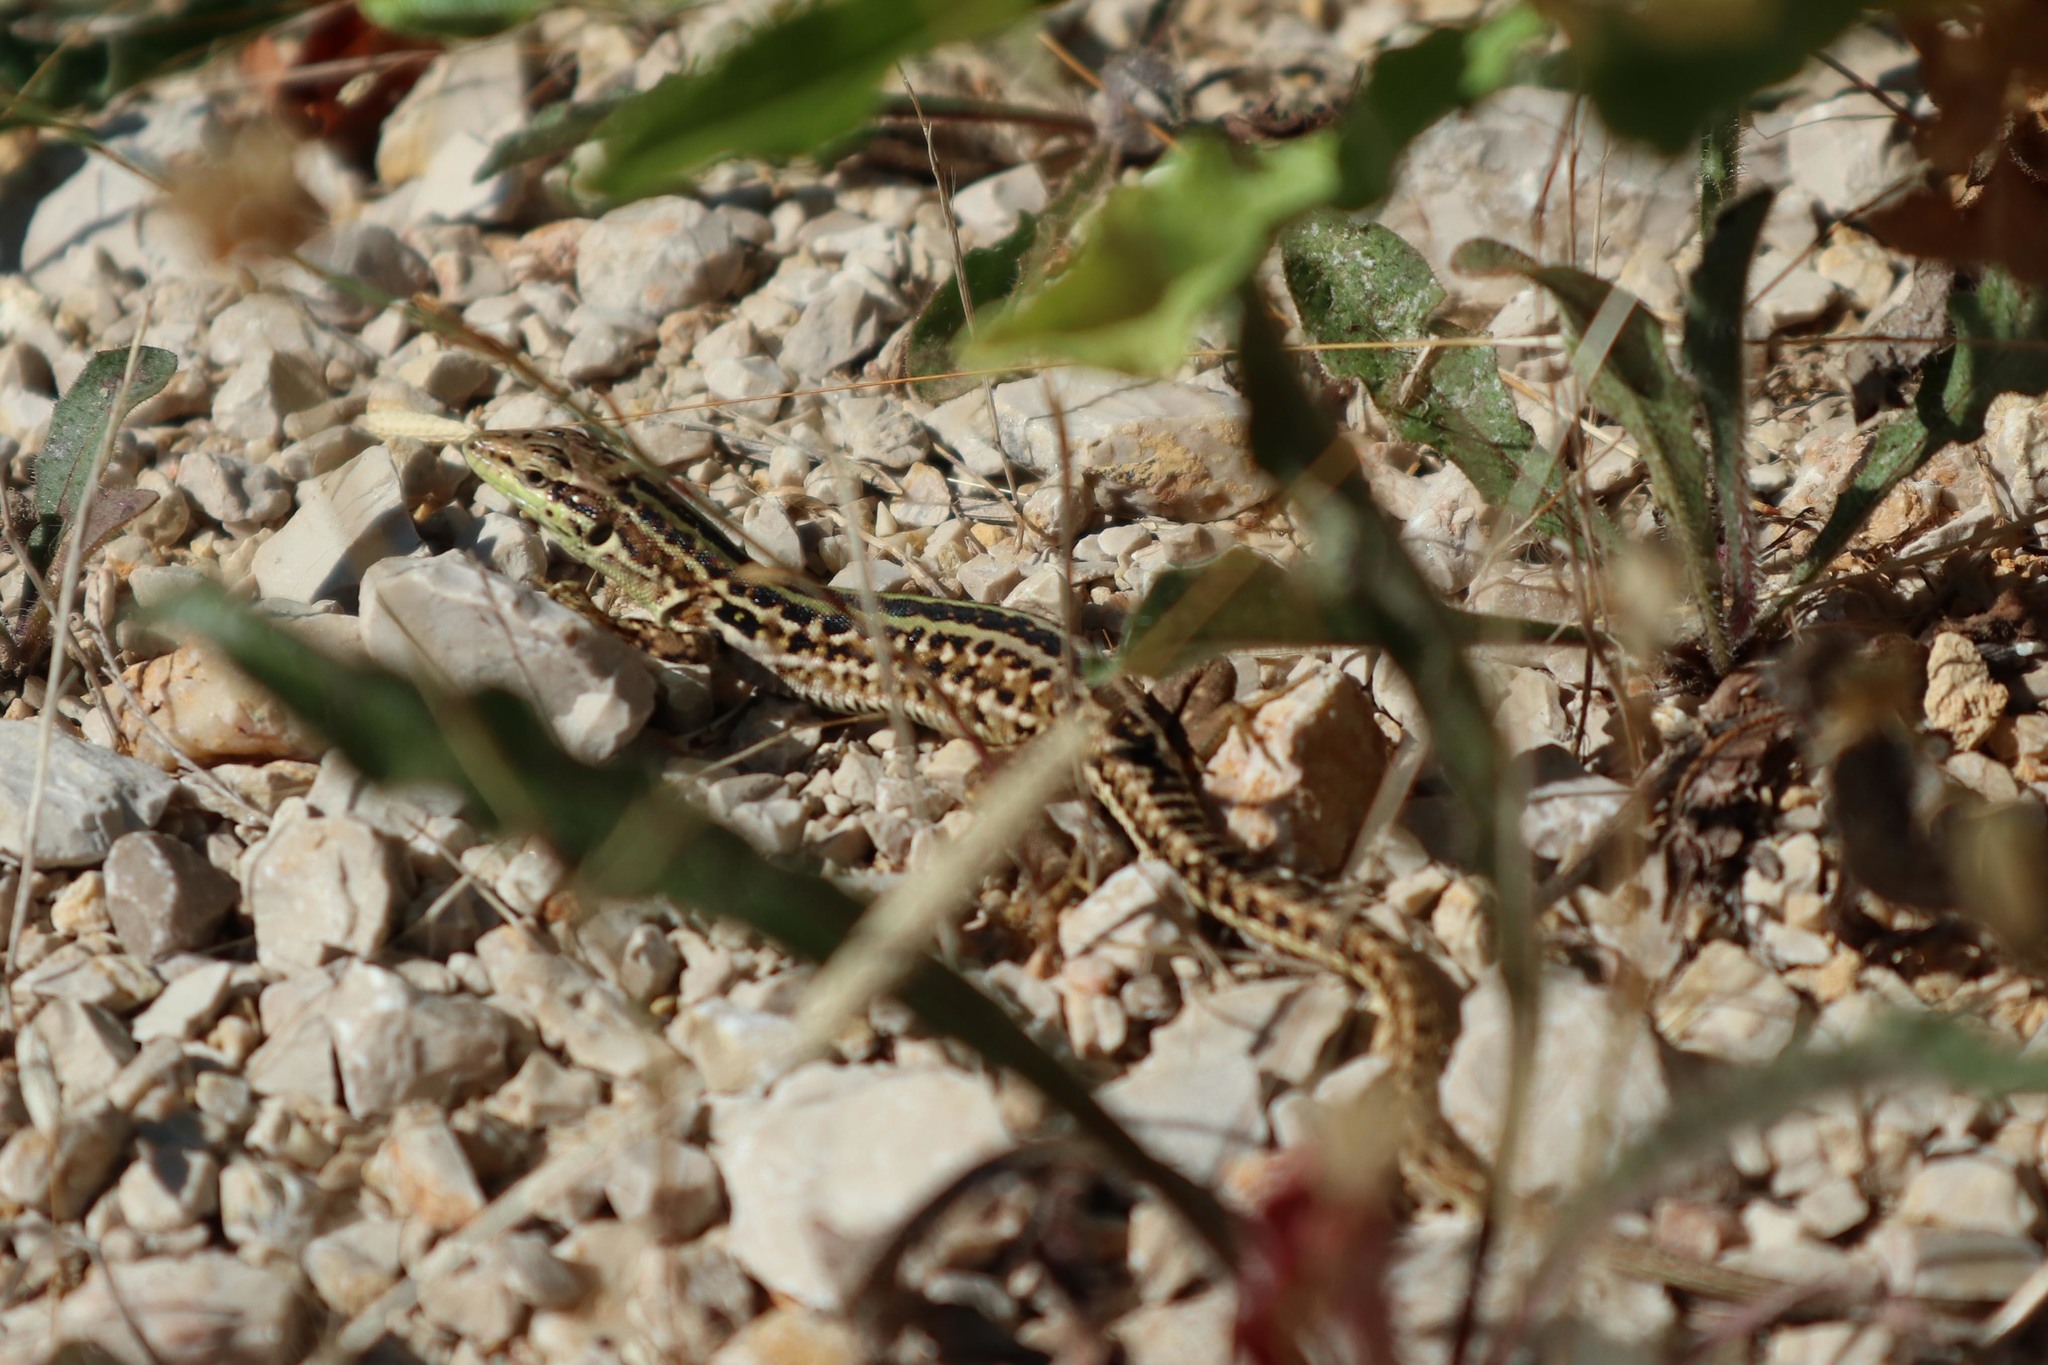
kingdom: Animalia
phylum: Chordata
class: Squamata
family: Lacertidae
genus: Podarcis
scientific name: Podarcis siculus
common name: Italian wall lizard
